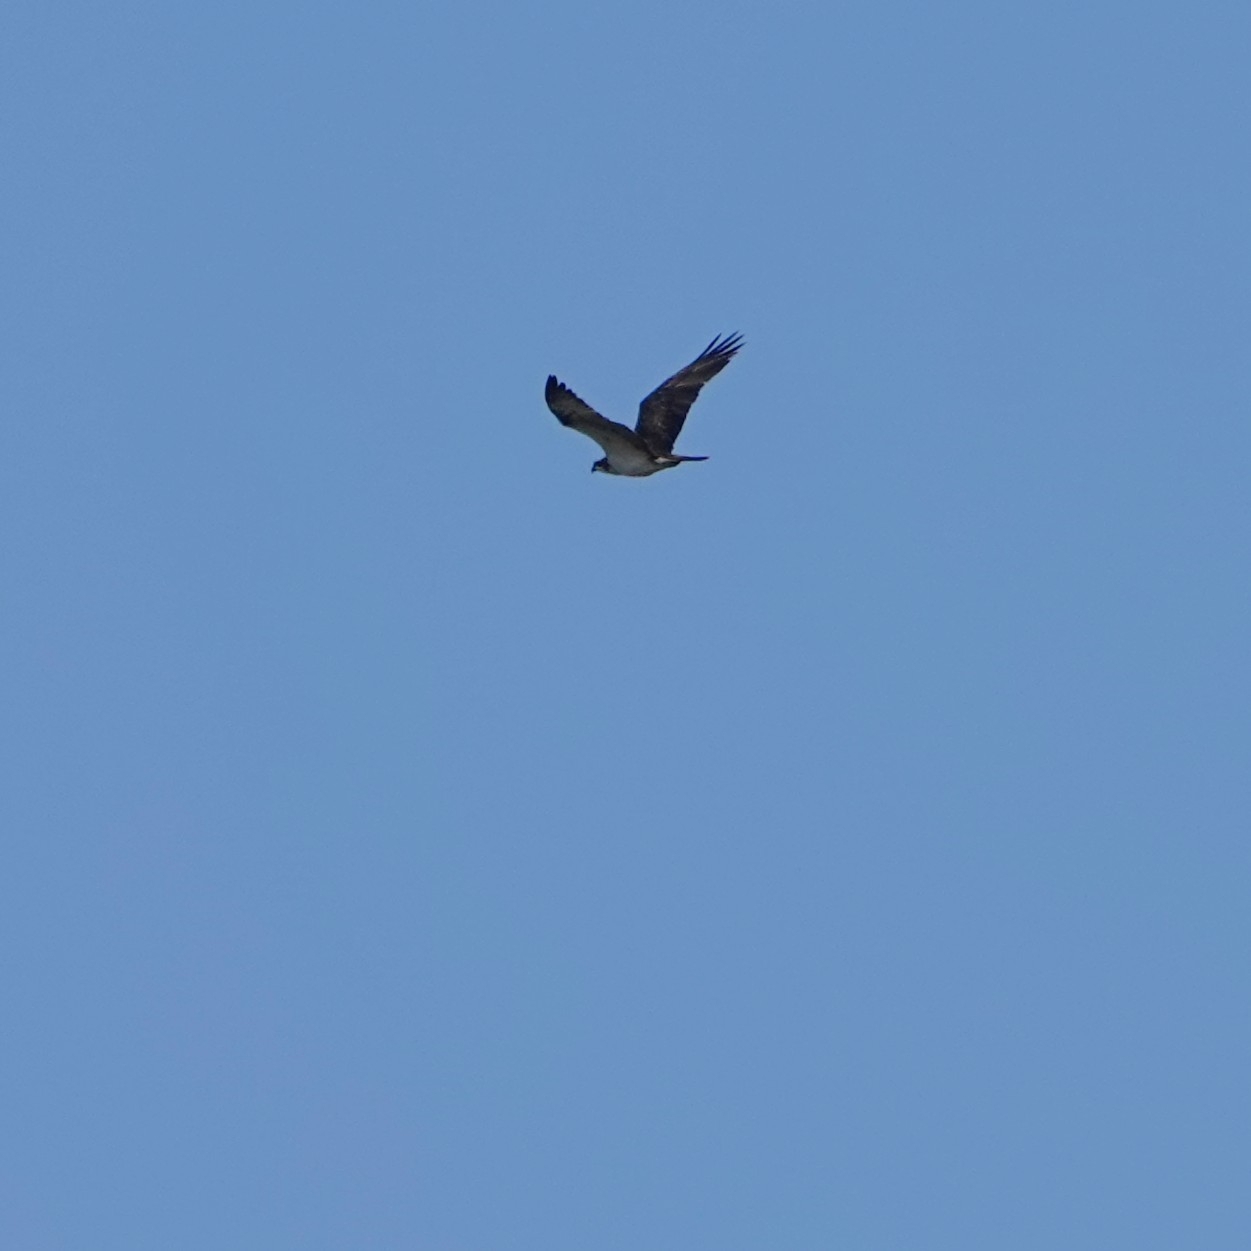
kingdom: Animalia
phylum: Chordata
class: Aves
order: Accipitriformes
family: Pandionidae
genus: Pandion
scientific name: Pandion haliaetus
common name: Osprey
